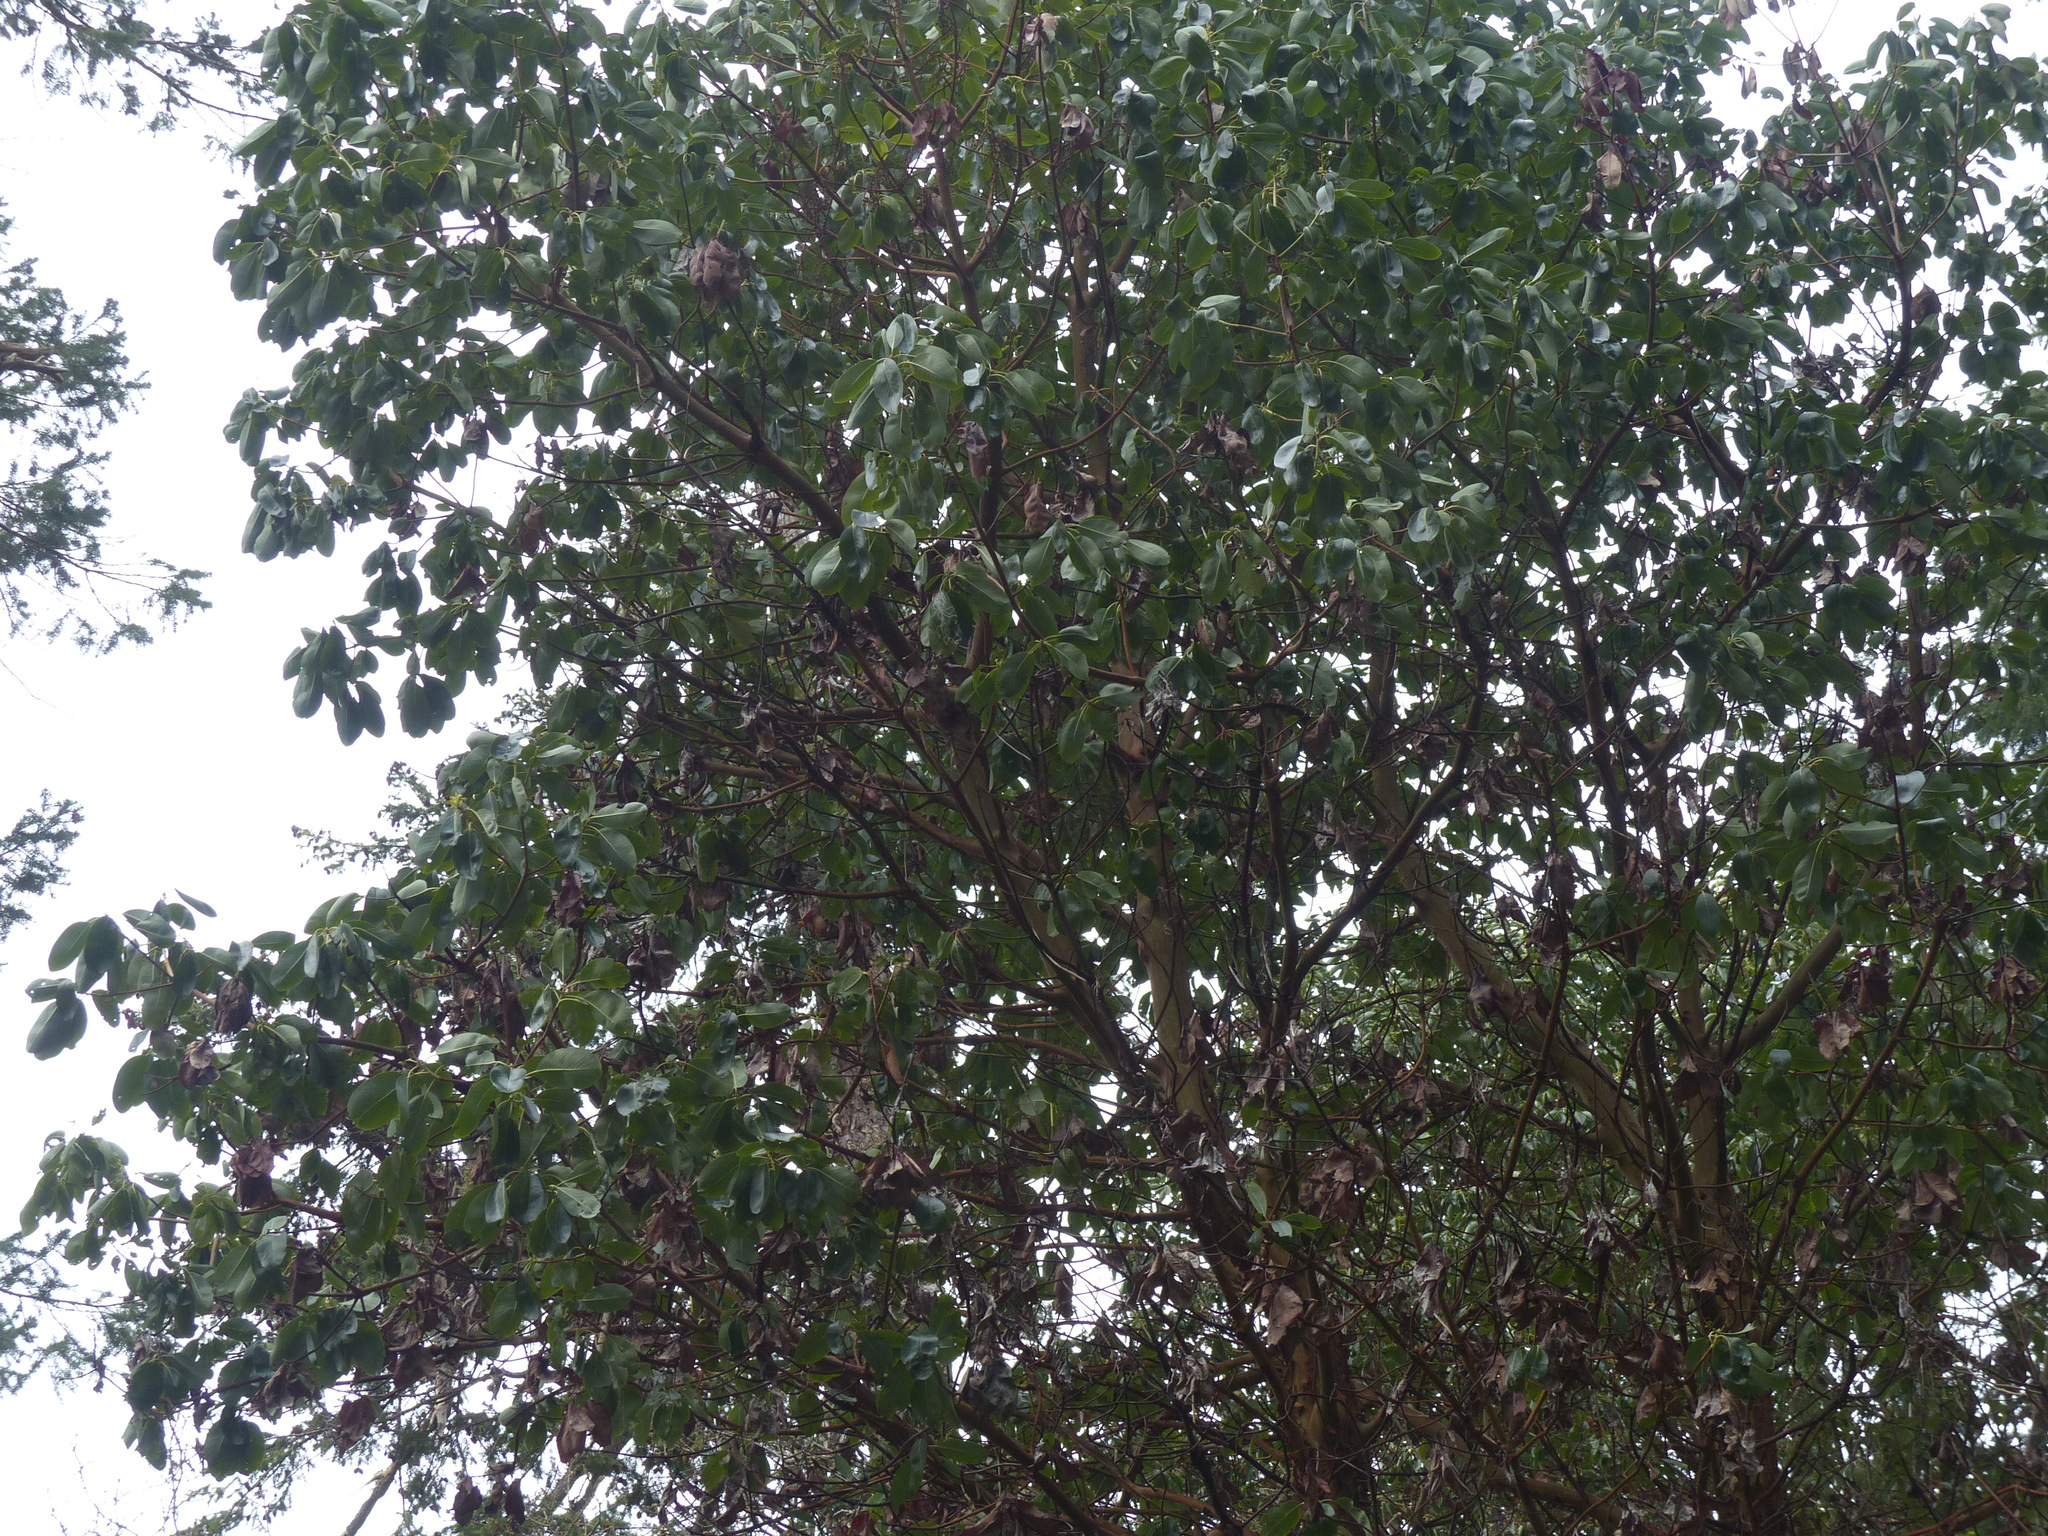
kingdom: Plantae
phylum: Tracheophyta
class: Magnoliopsida
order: Ericales
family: Ericaceae
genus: Arbutus
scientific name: Arbutus menziesii
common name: Pacific madrone
